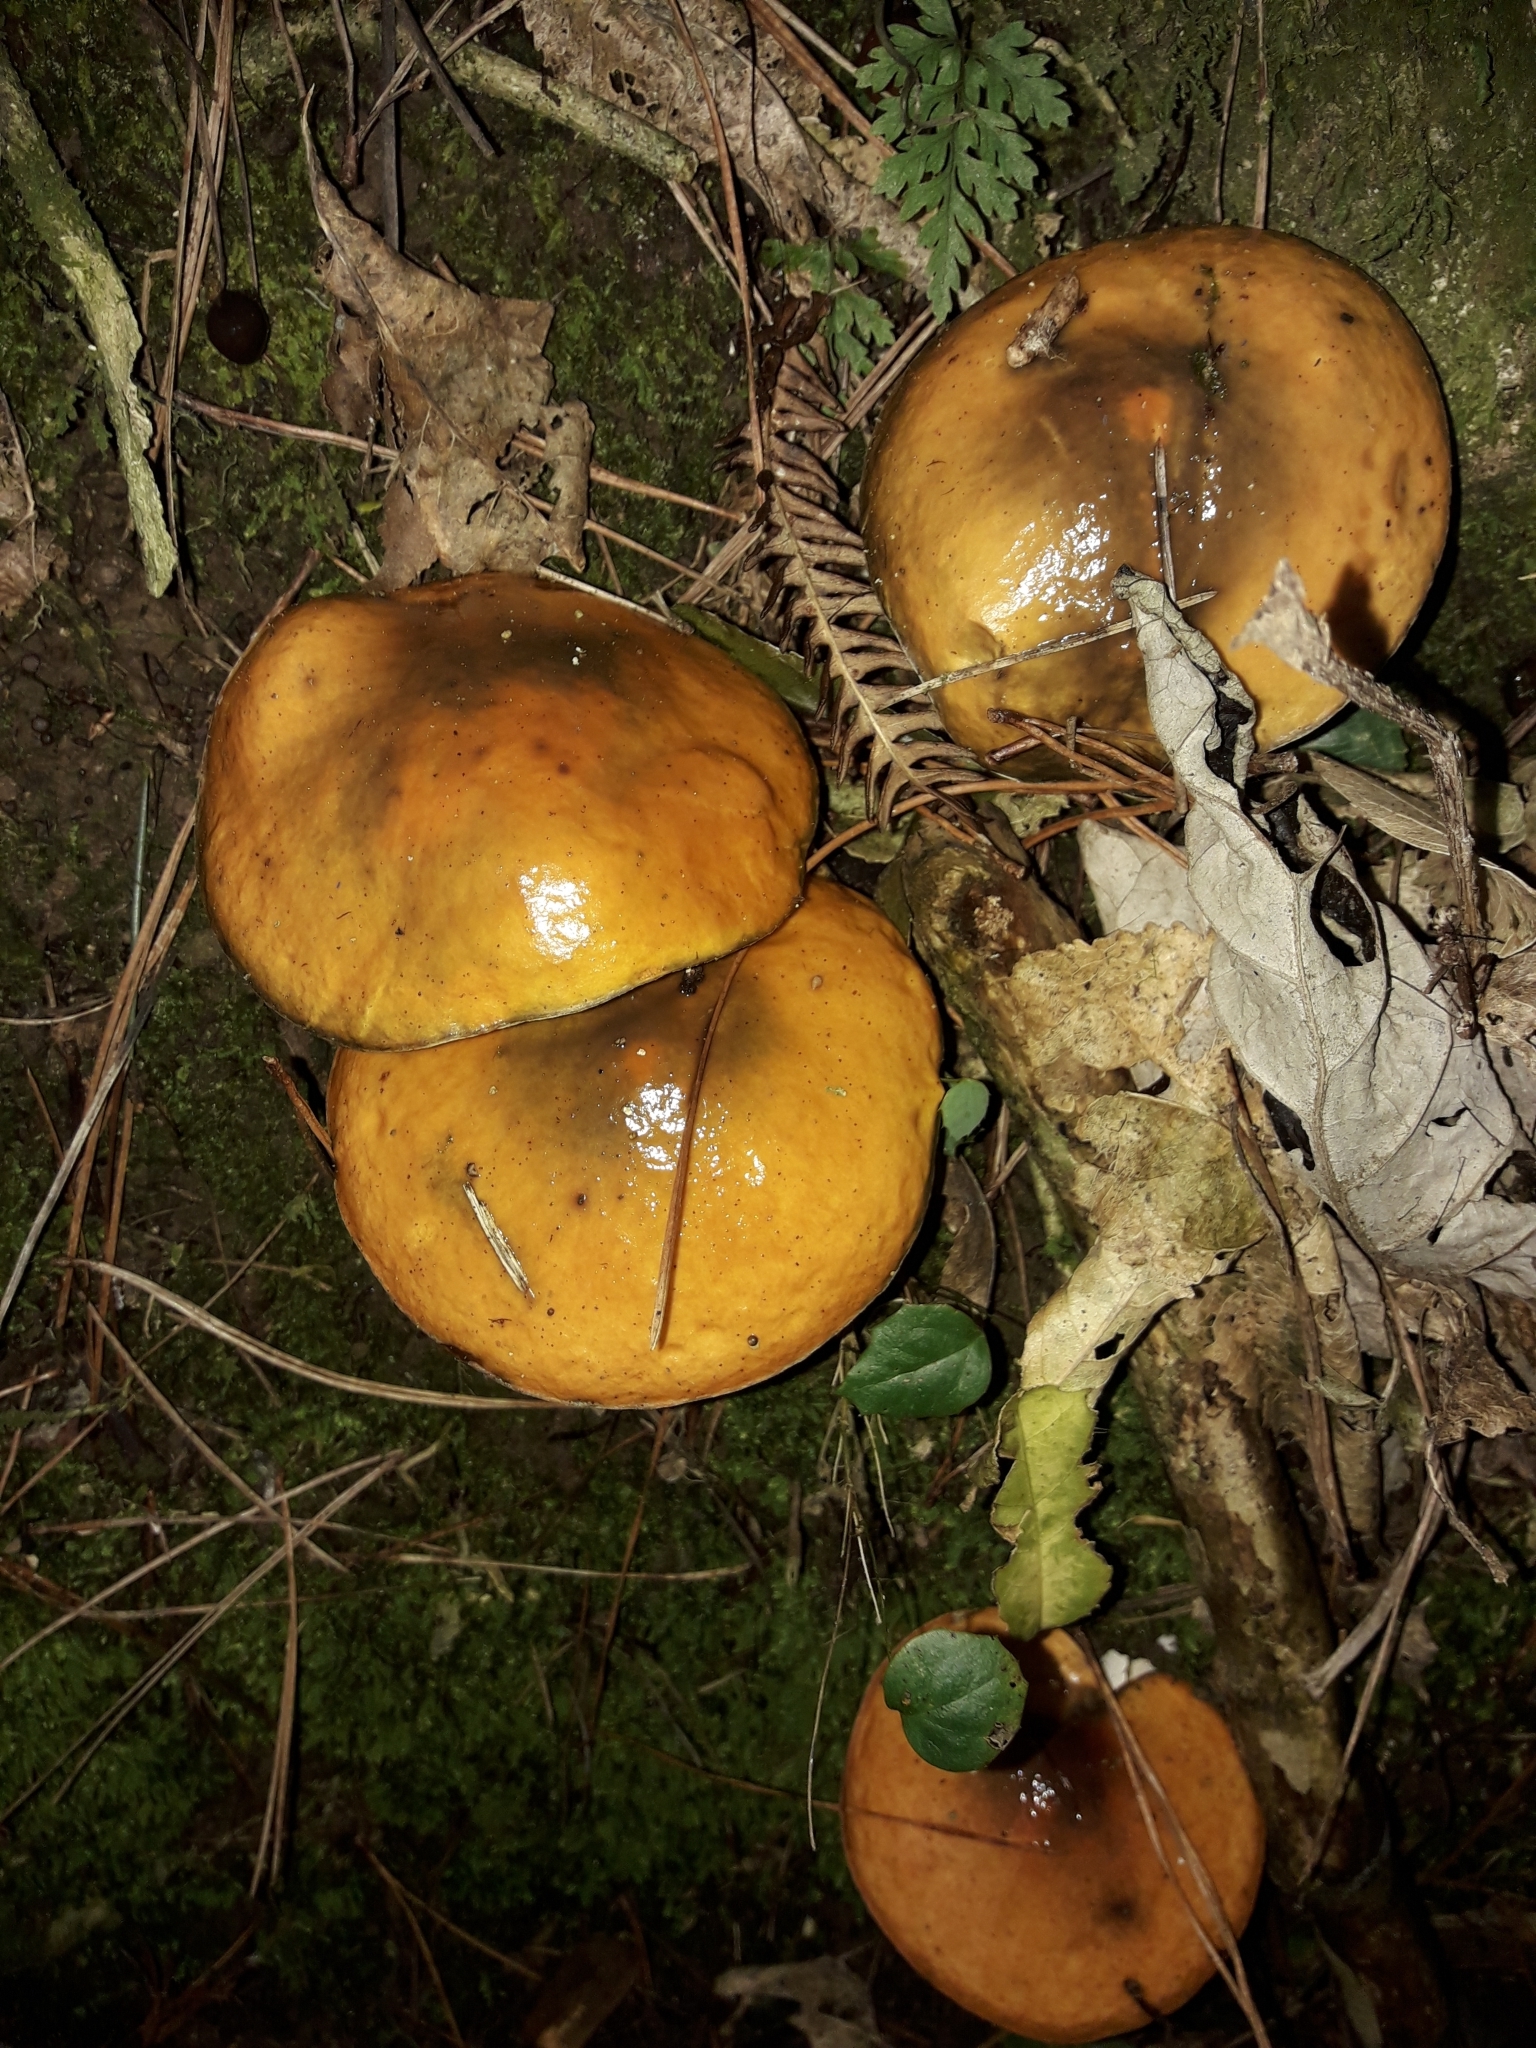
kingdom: Fungi
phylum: Basidiomycota
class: Agaricomycetes
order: Boletales
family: Suillaceae
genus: Suillus
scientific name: Suillus pungens
